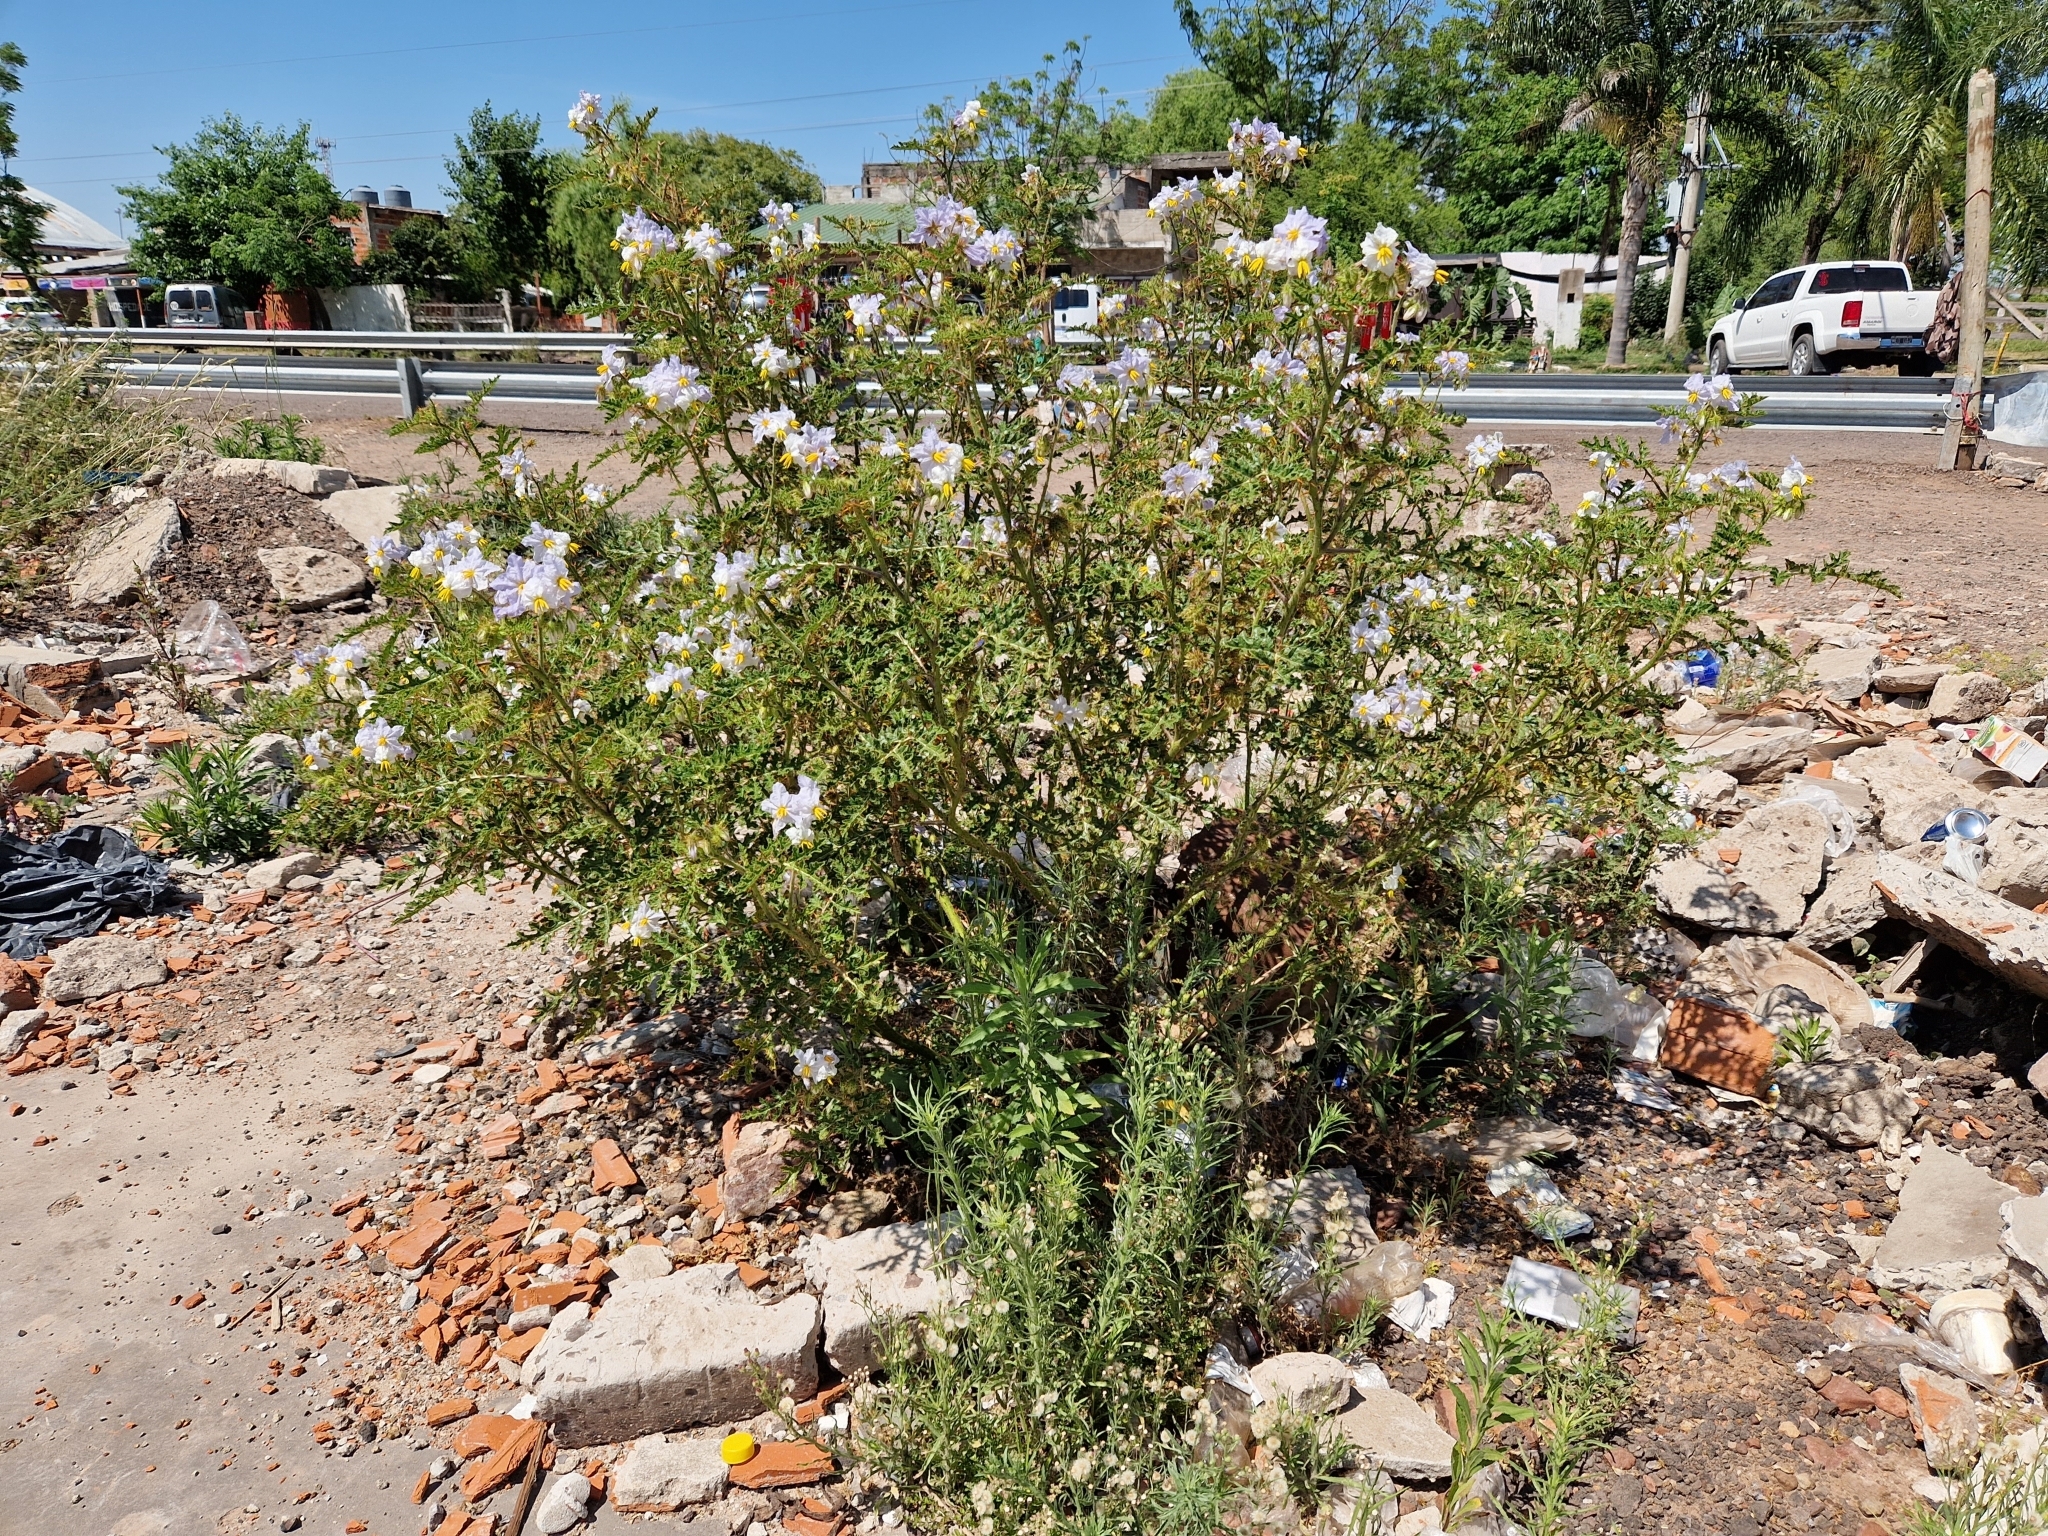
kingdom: Plantae
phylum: Tracheophyta
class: Magnoliopsida
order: Solanales
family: Solanaceae
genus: Solanum
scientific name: Solanum sisymbriifolium
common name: Red buffalo-bur
